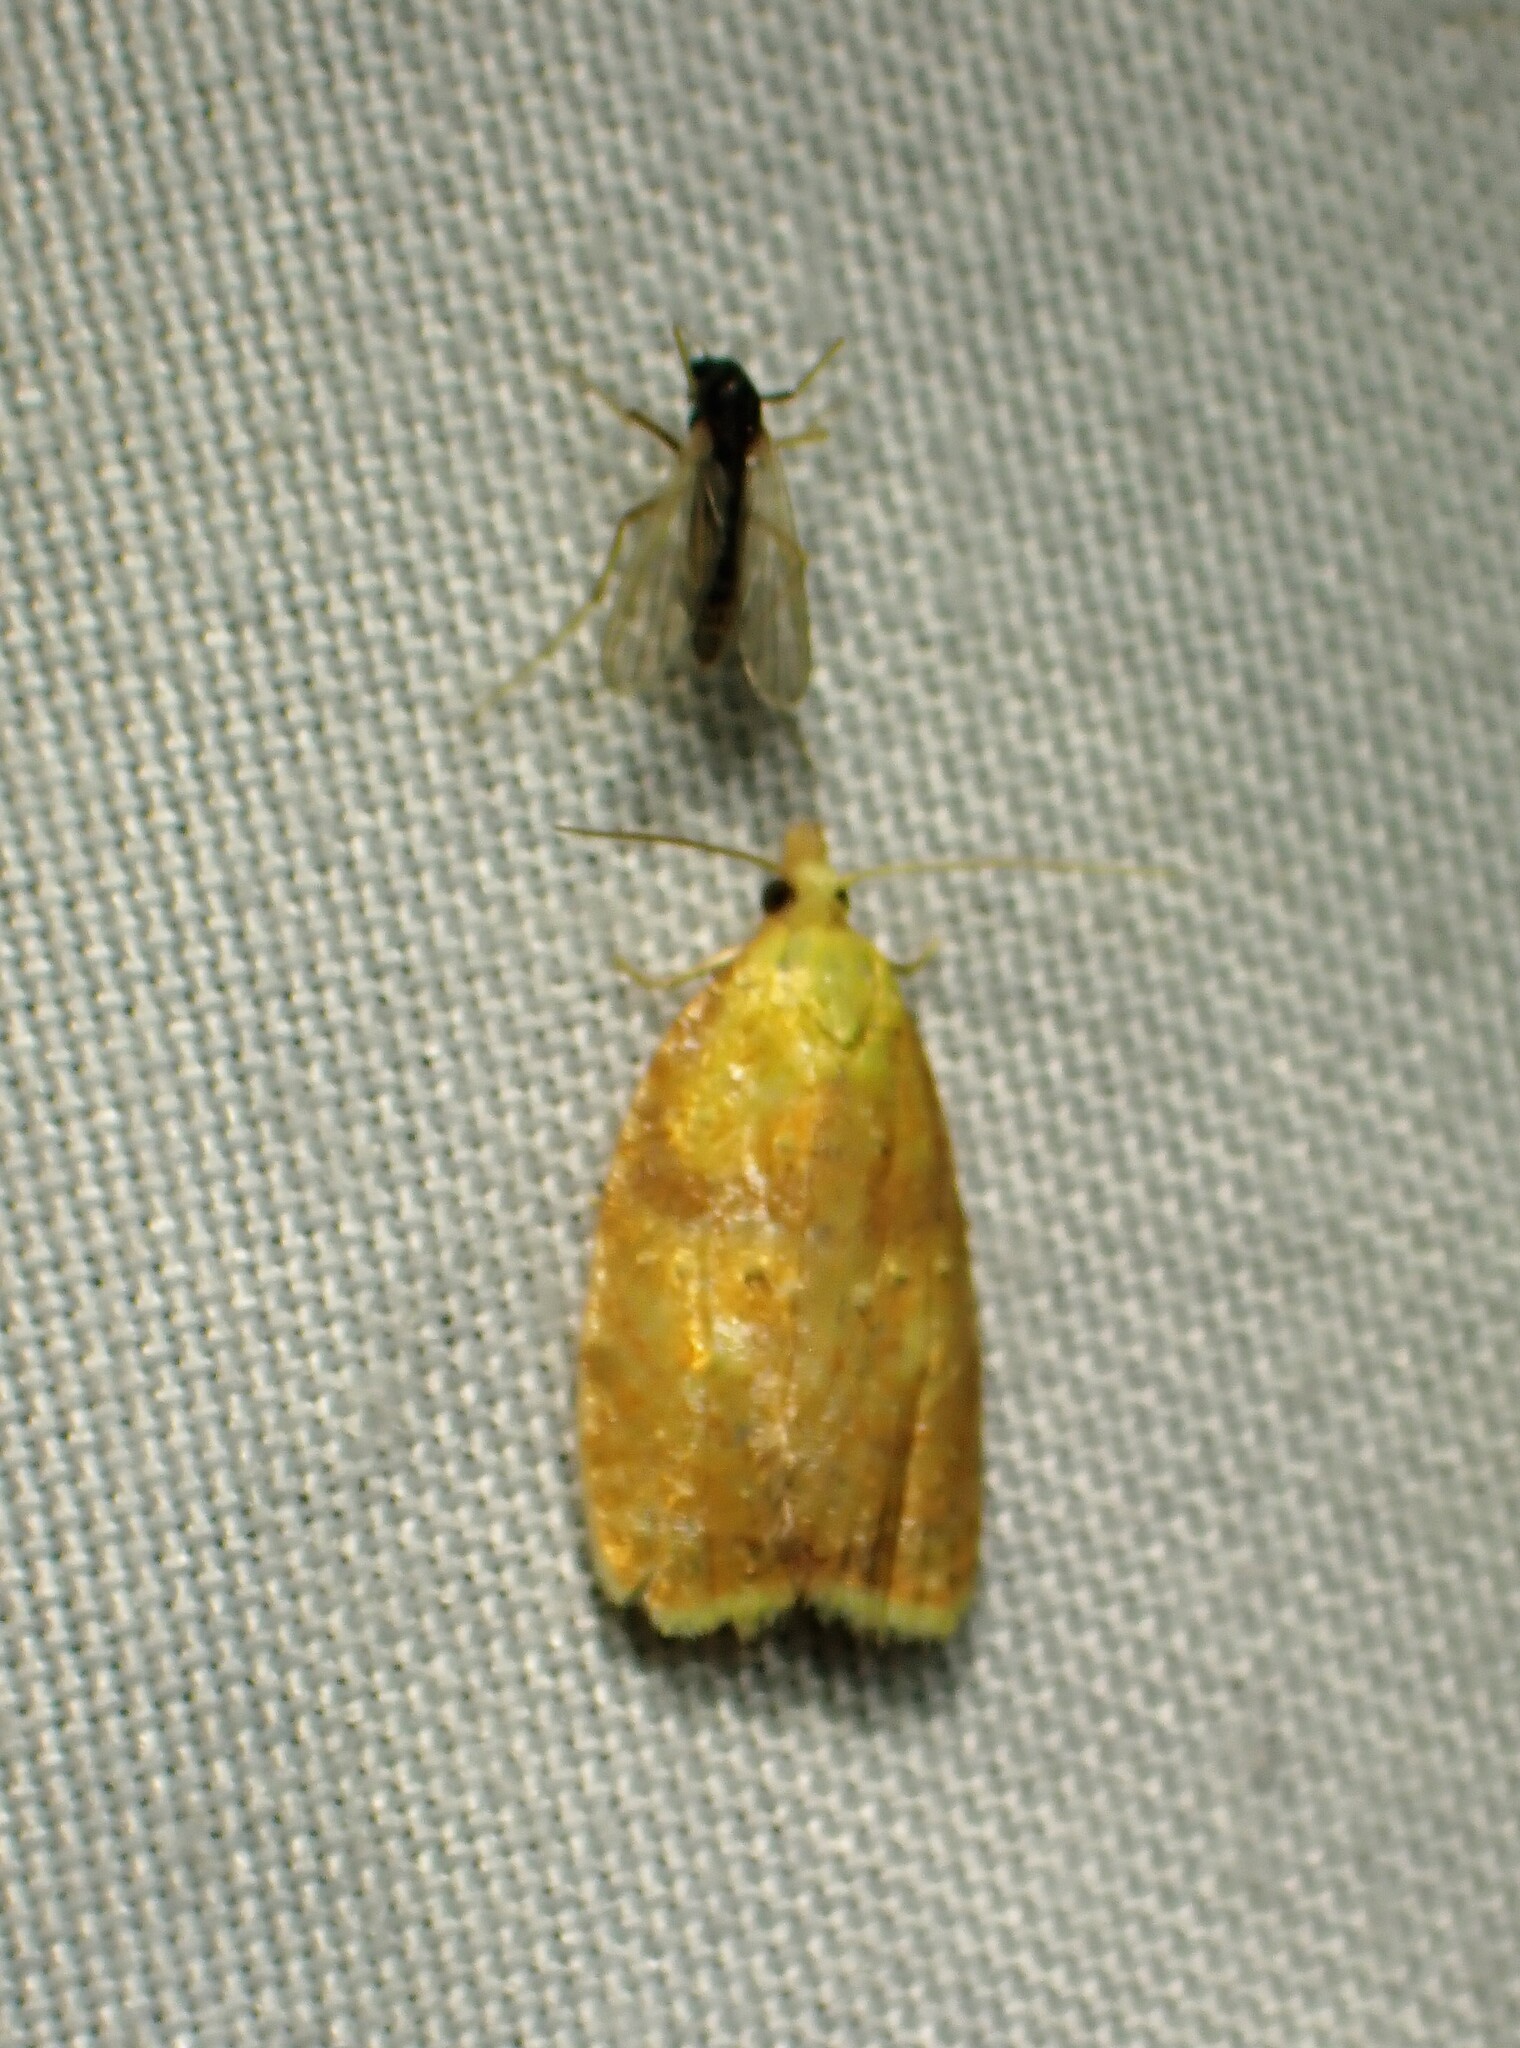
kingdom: Animalia
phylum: Arthropoda
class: Insecta
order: Lepidoptera
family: Tortricidae
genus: Acleris
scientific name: Acleris curvalana
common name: Blueberry leaftier moth
